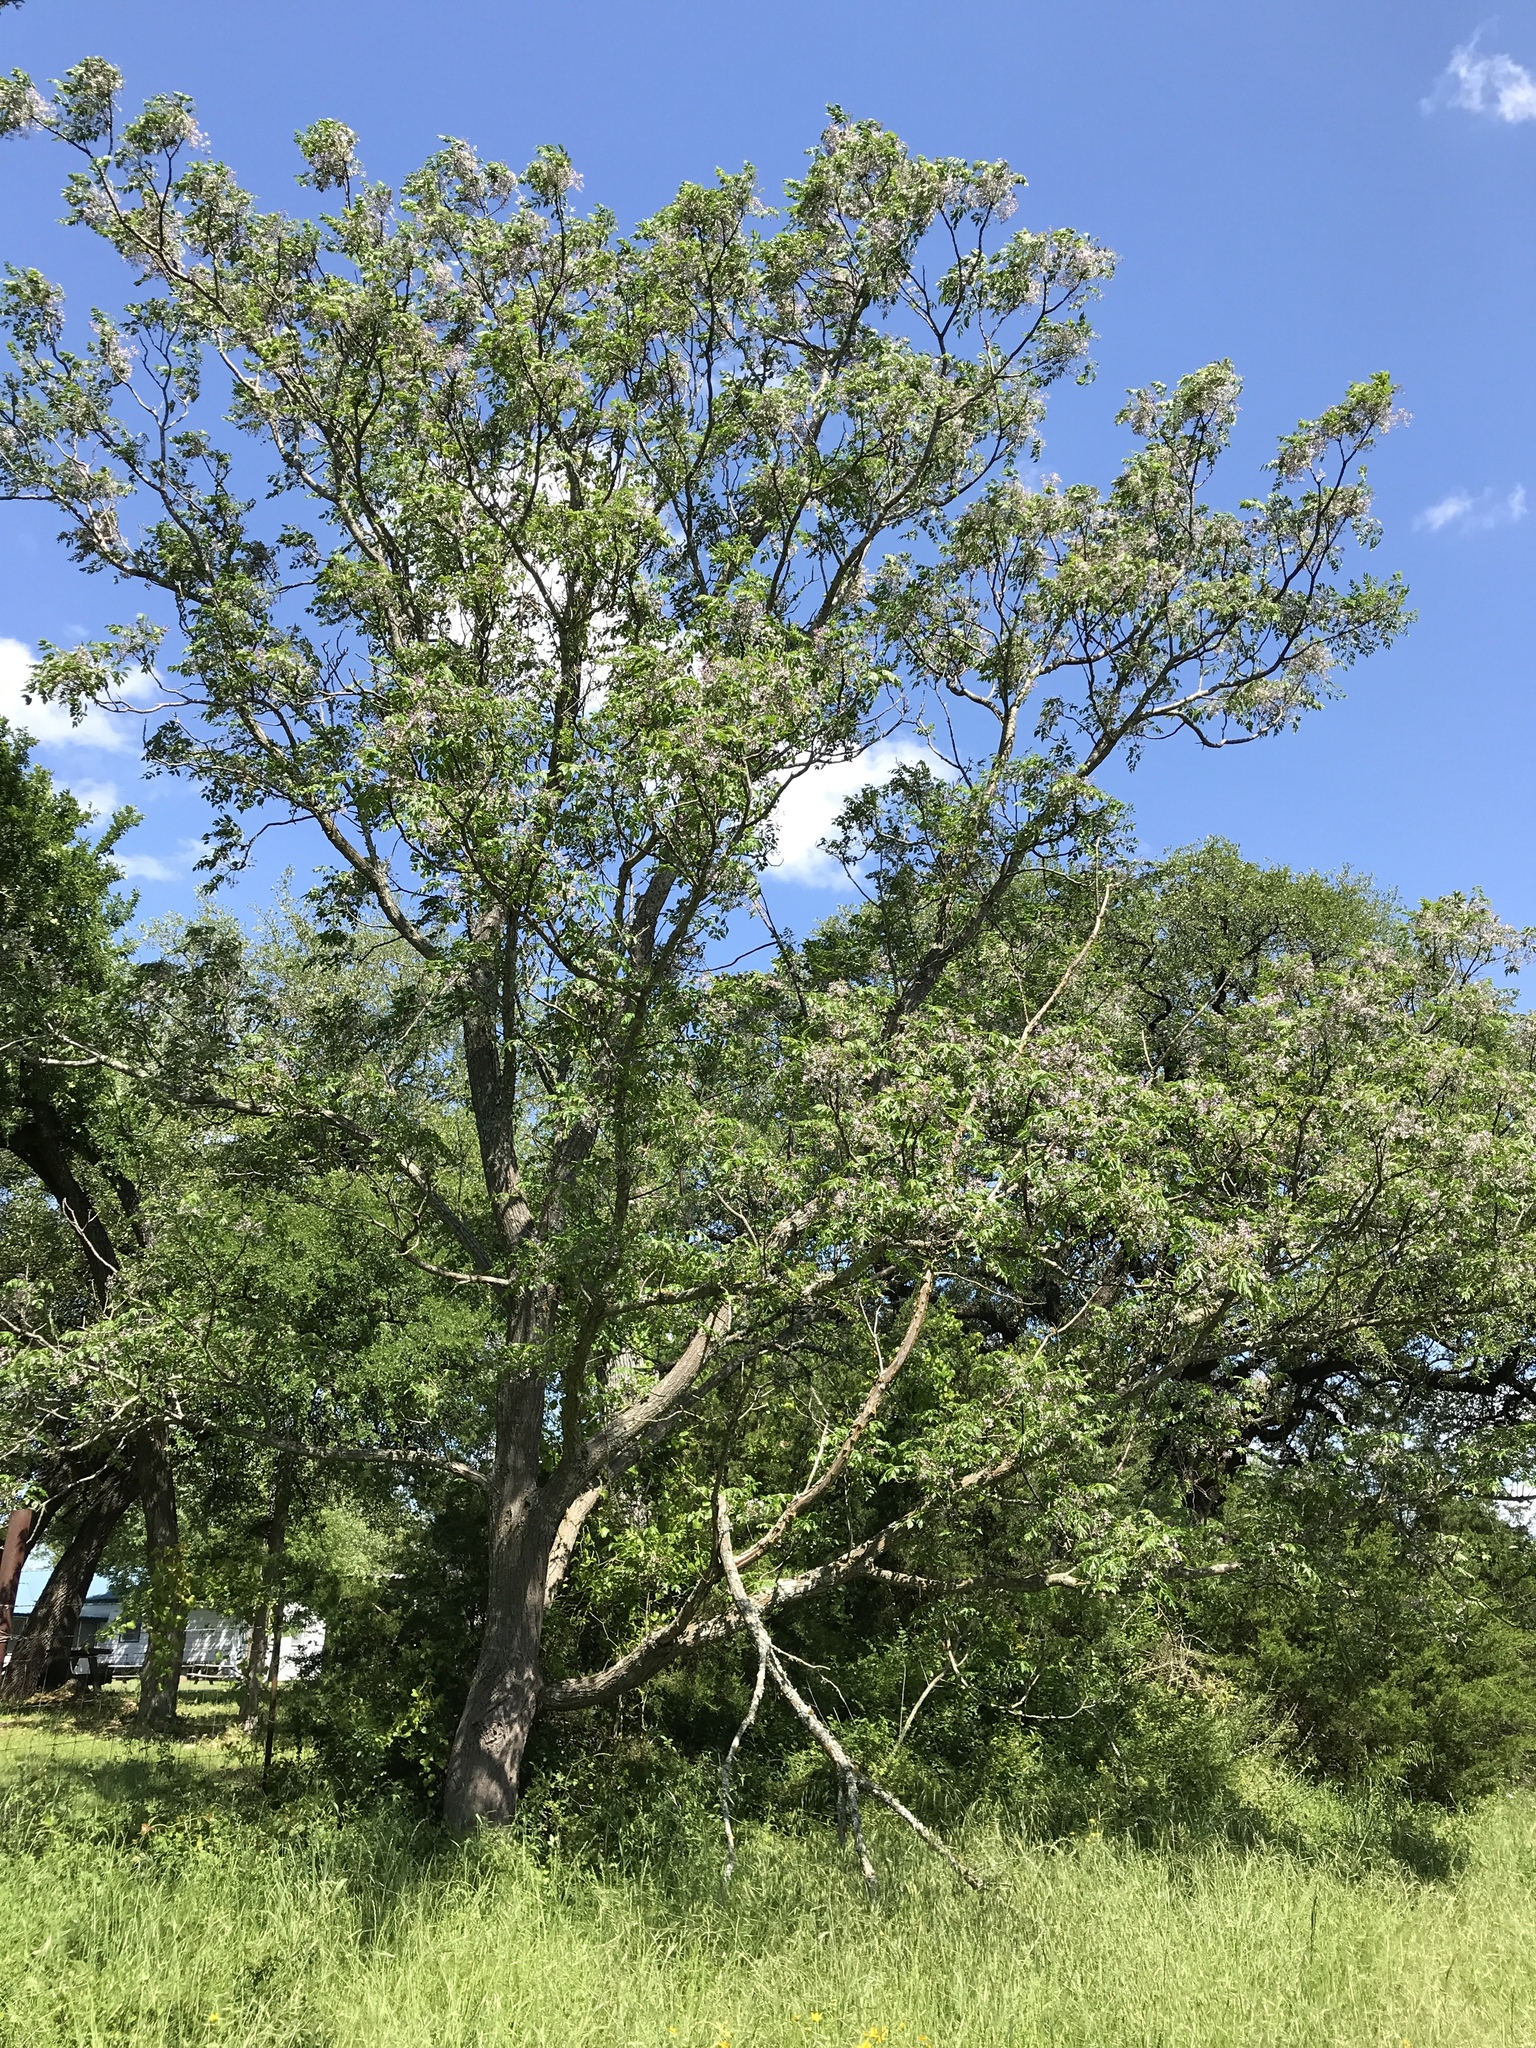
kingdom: Plantae
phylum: Tracheophyta
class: Magnoliopsida
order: Sapindales
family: Meliaceae
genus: Melia
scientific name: Melia azedarach
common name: Chinaberrytree
